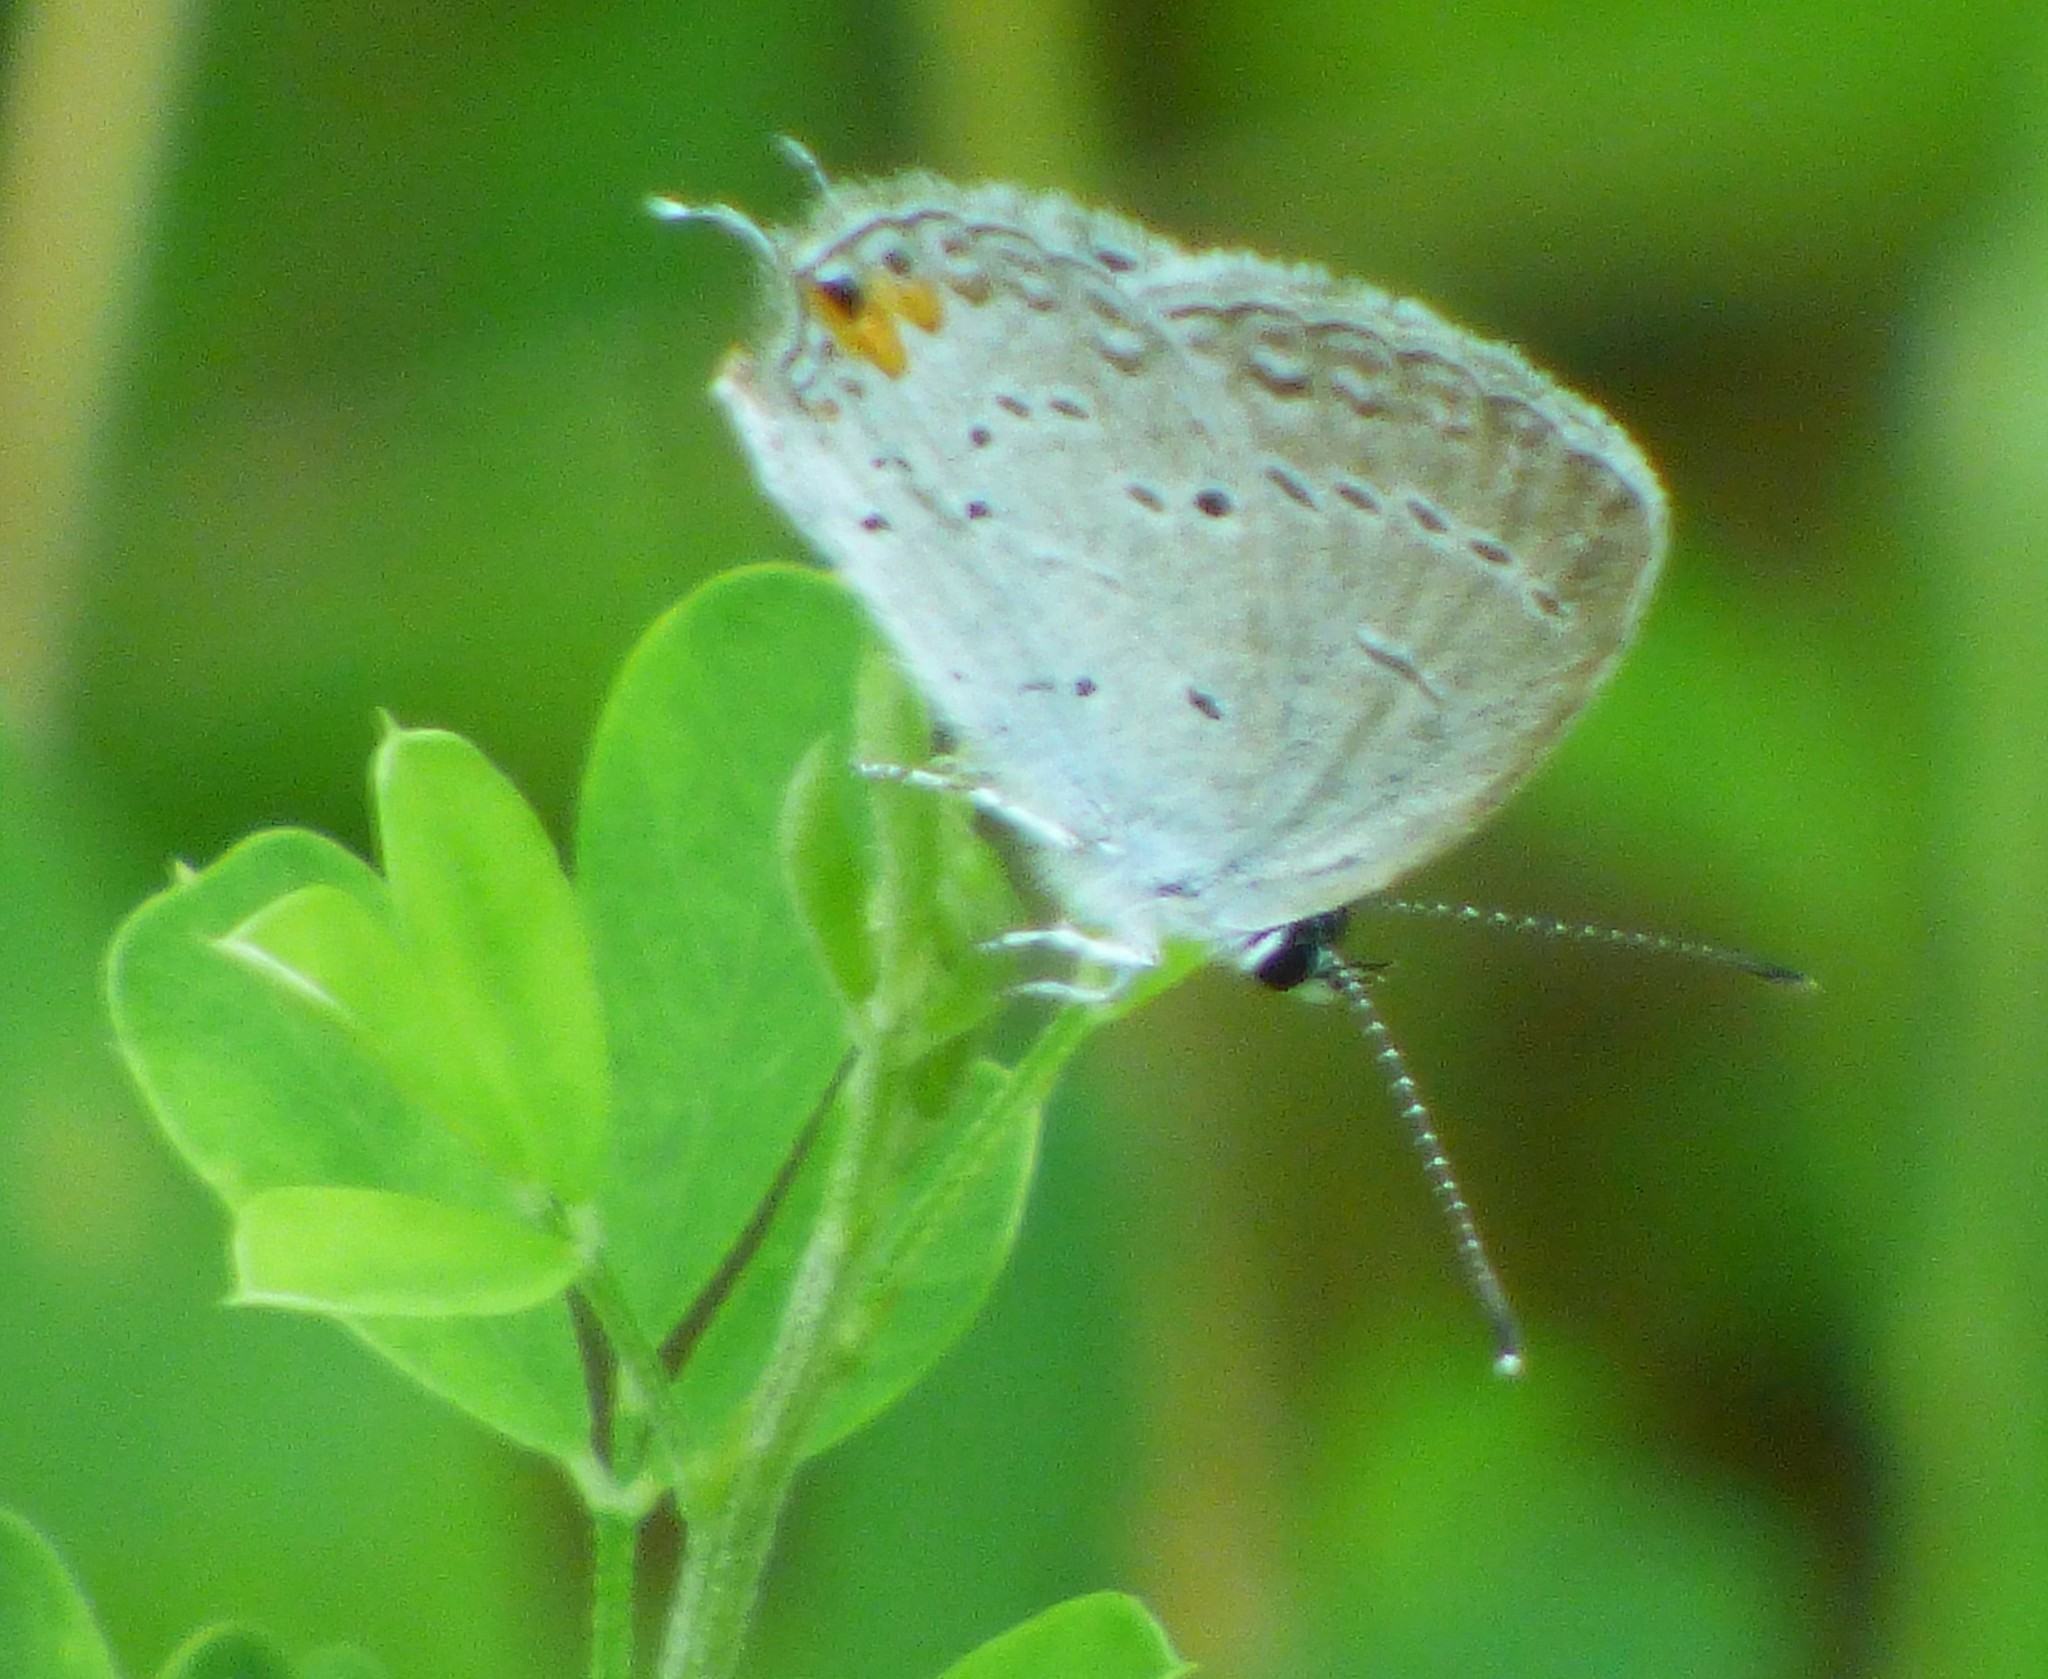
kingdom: Animalia
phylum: Arthropoda
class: Insecta
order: Lepidoptera
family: Lycaenidae
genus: Elkalyce
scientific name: Elkalyce comyntas
